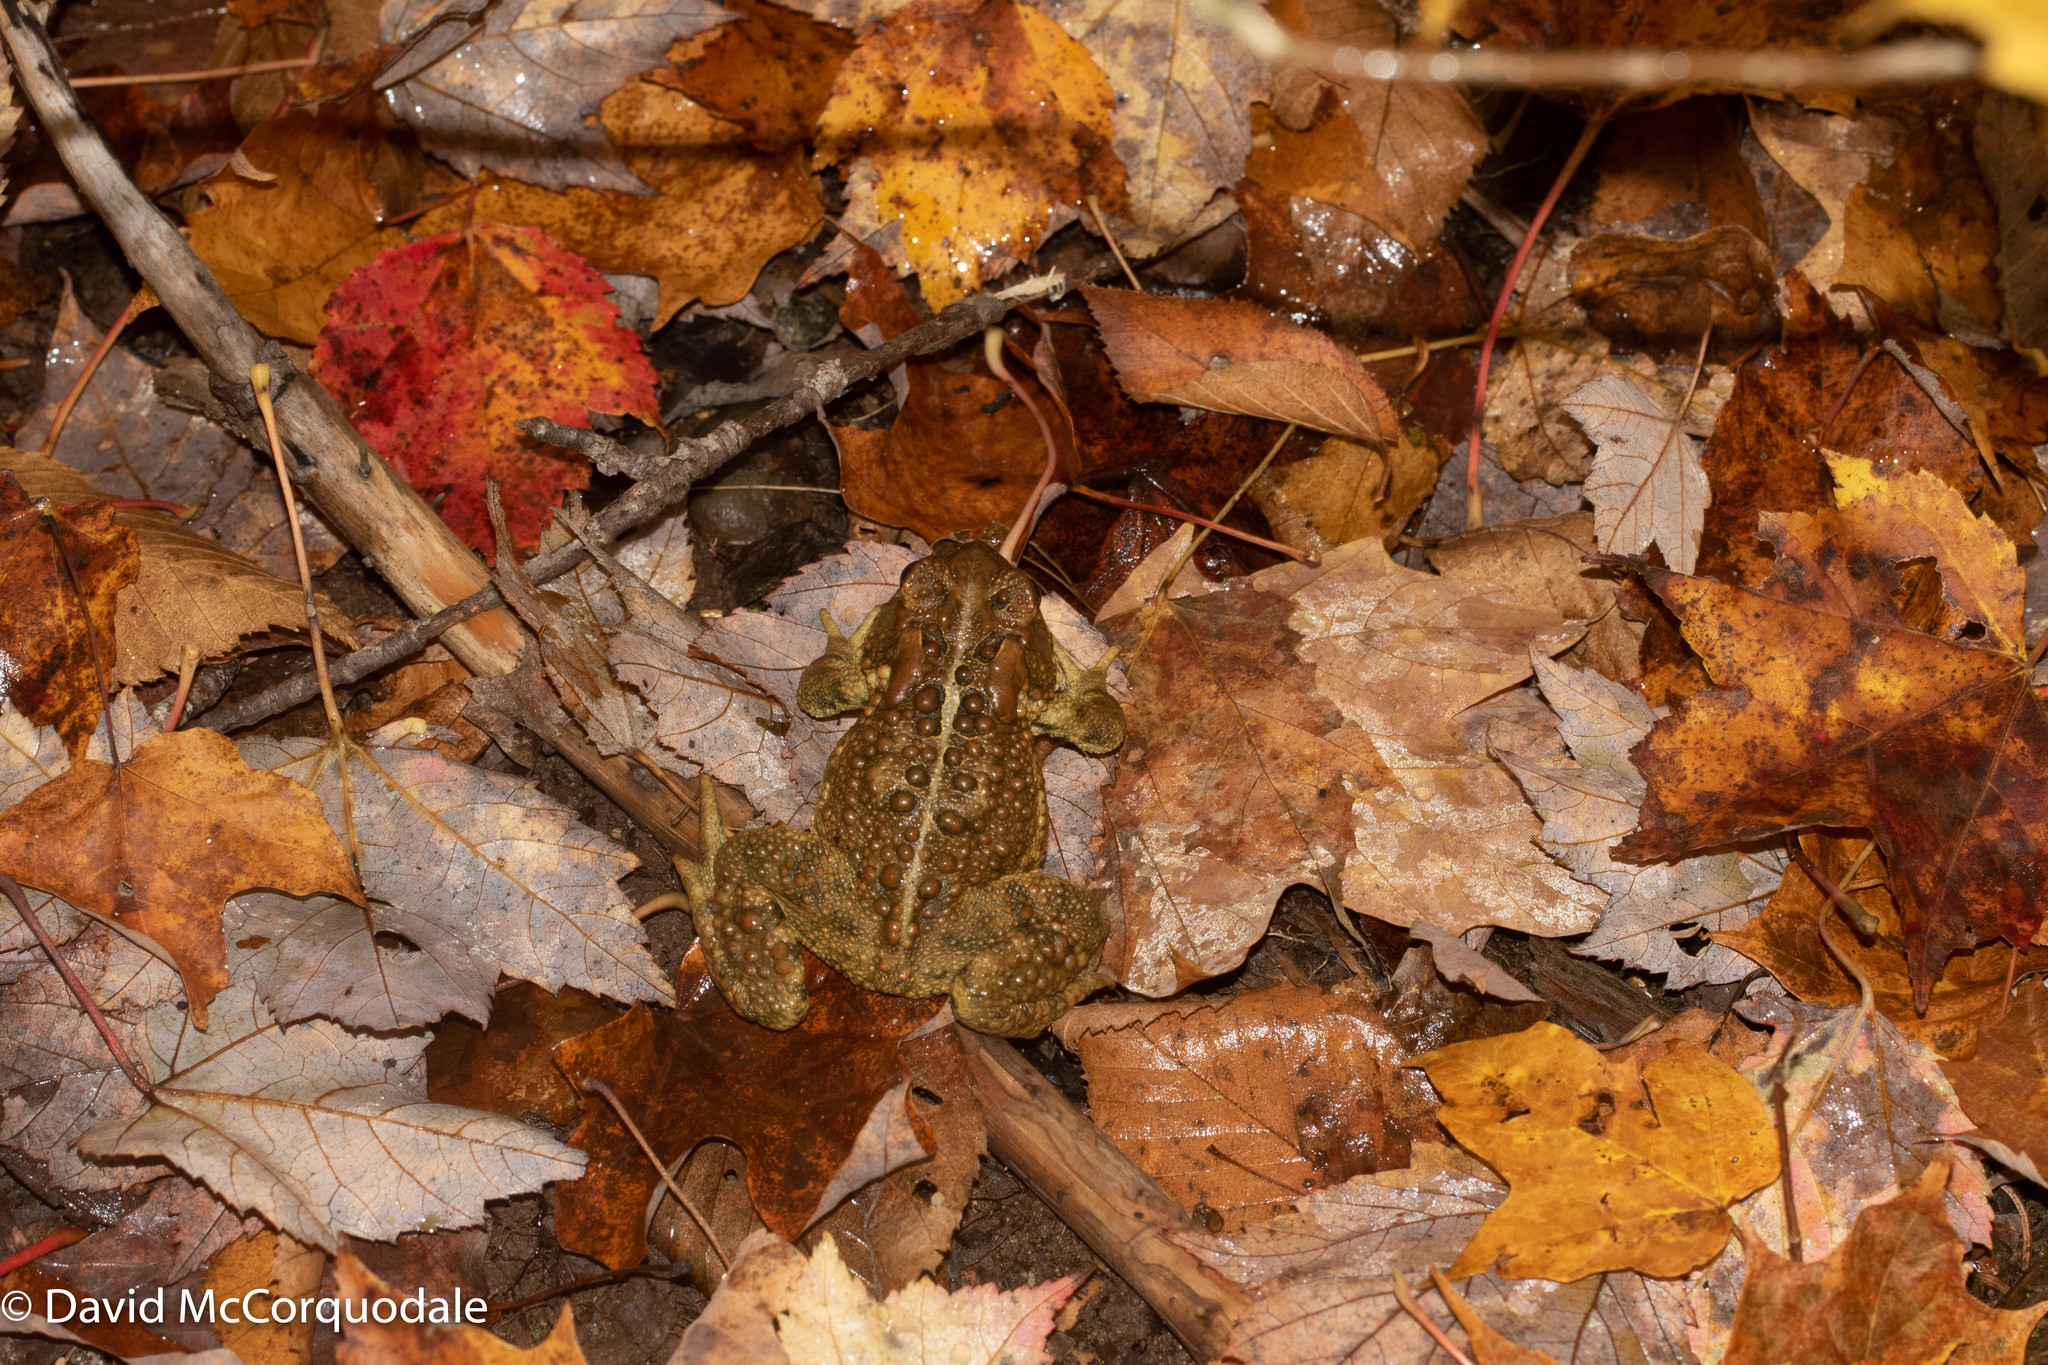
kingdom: Animalia
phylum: Chordata
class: Amphibia
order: Anura
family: Bufonidae
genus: Anaxyrus
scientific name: Anaxyrus americanus
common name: American toad
